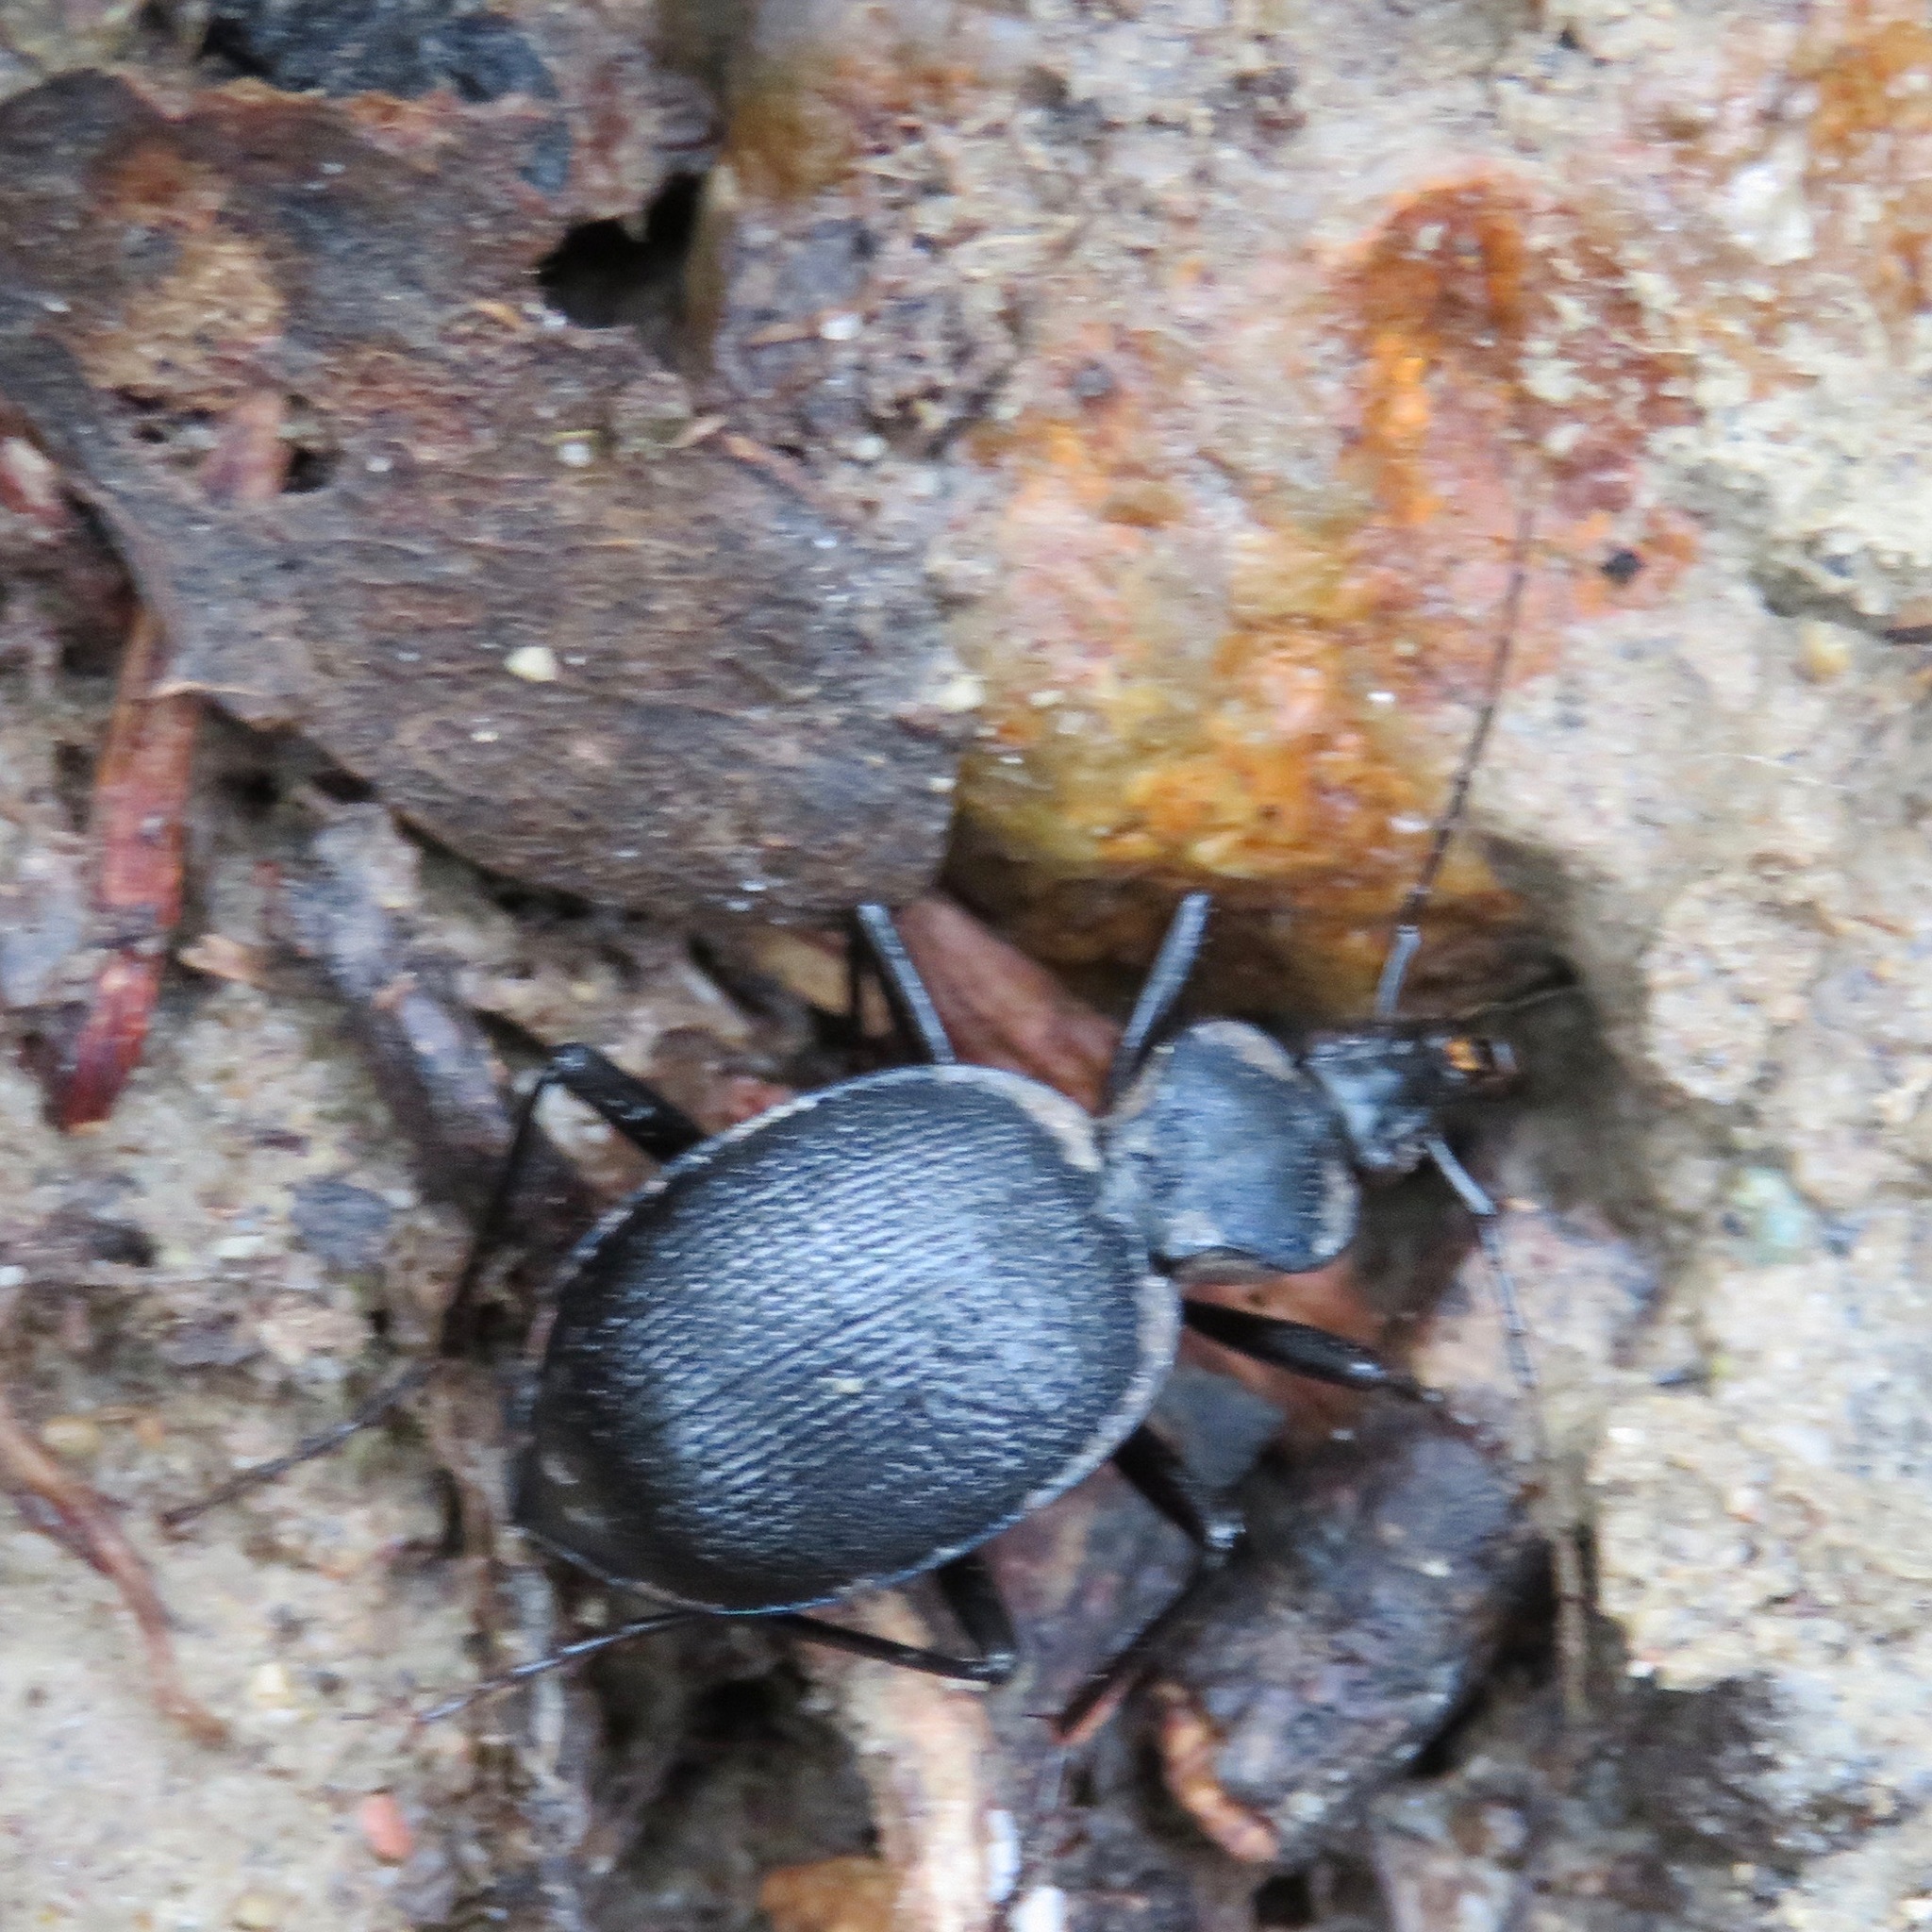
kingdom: Animalia
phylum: Arthropoda
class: Insecta
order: Coleoptera
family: Carabidae
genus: Scaphinotus
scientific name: Scaphinotus interruptus
